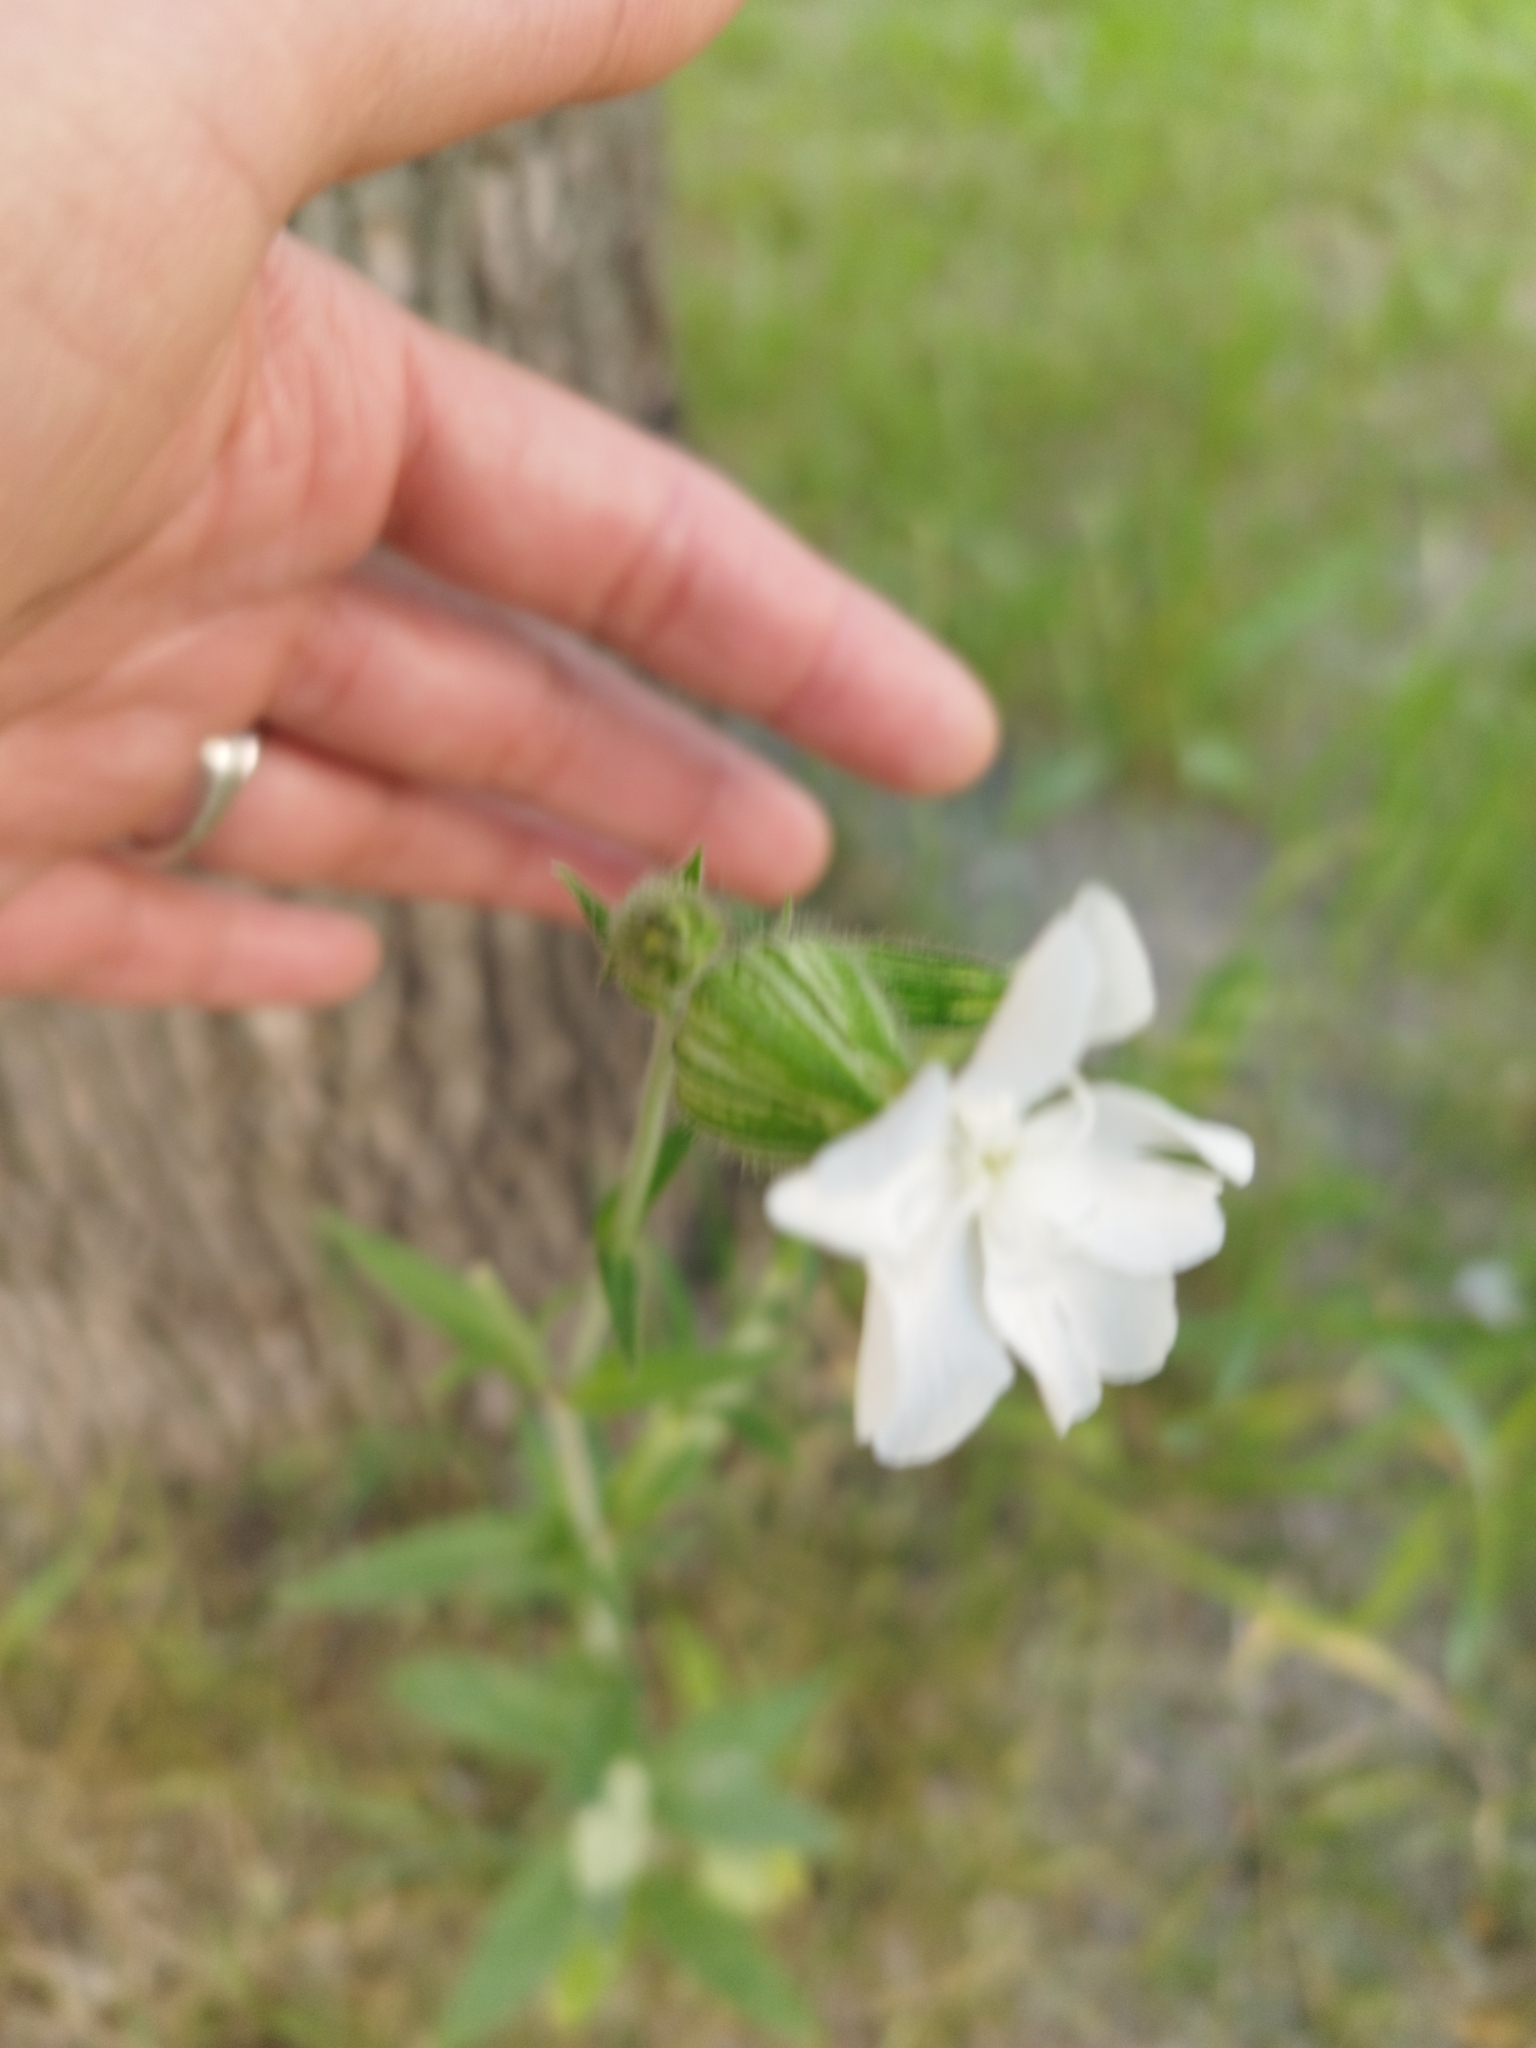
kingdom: Plantae
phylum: Tracheophyta
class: Magnoliopsida
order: Caryophyllales
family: Caryophyllaceae
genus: Silene
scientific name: Silene latifolia
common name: White campion
